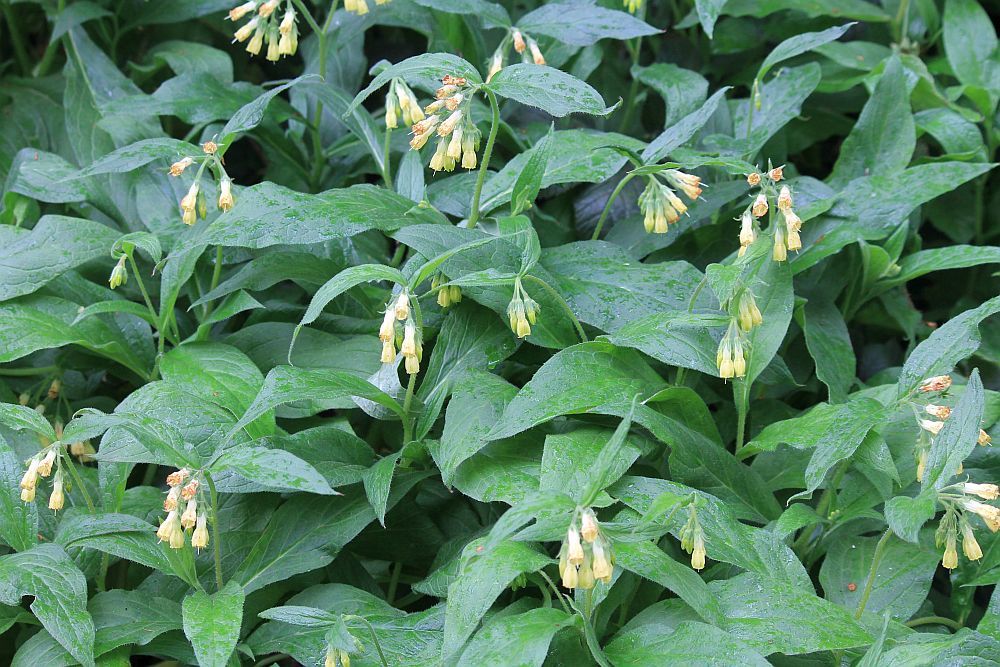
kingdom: Plantae
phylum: Tracheophyta
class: Magnoliopsida
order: Boraginales
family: Boraginaceae
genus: Symphytum
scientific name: Symphytum tuberosum
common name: Tuberous comfrey
